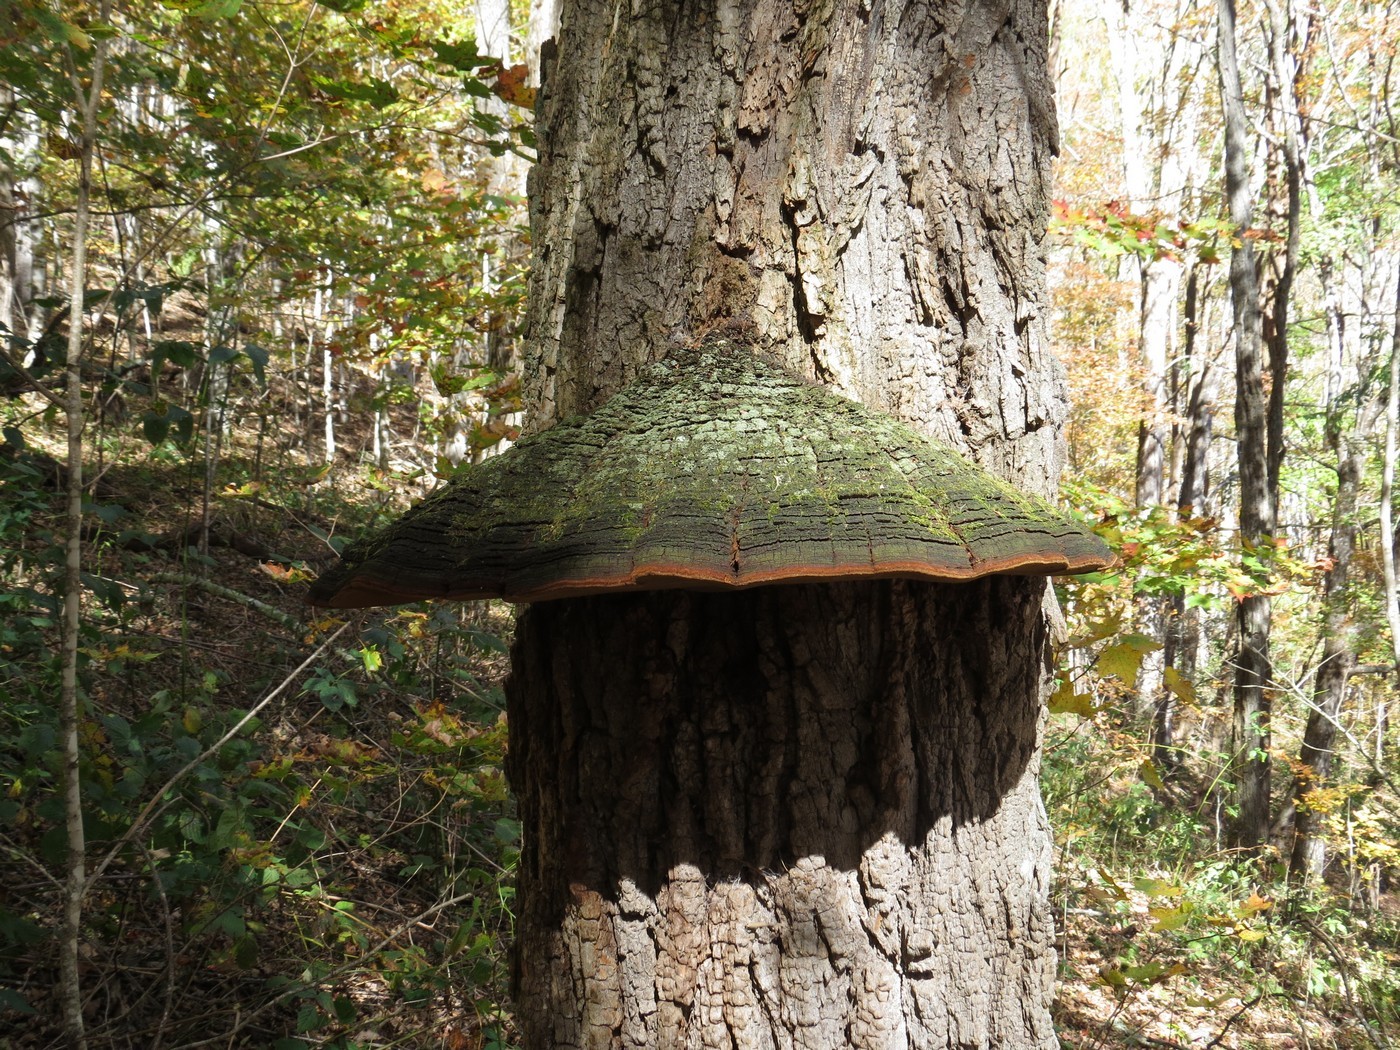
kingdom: Fungi
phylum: Basidiomycota
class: Agaricomycetes
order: Hymenochaetales
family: Hymenochaetaceae
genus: Phellinus
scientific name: Phellinus robiniae
